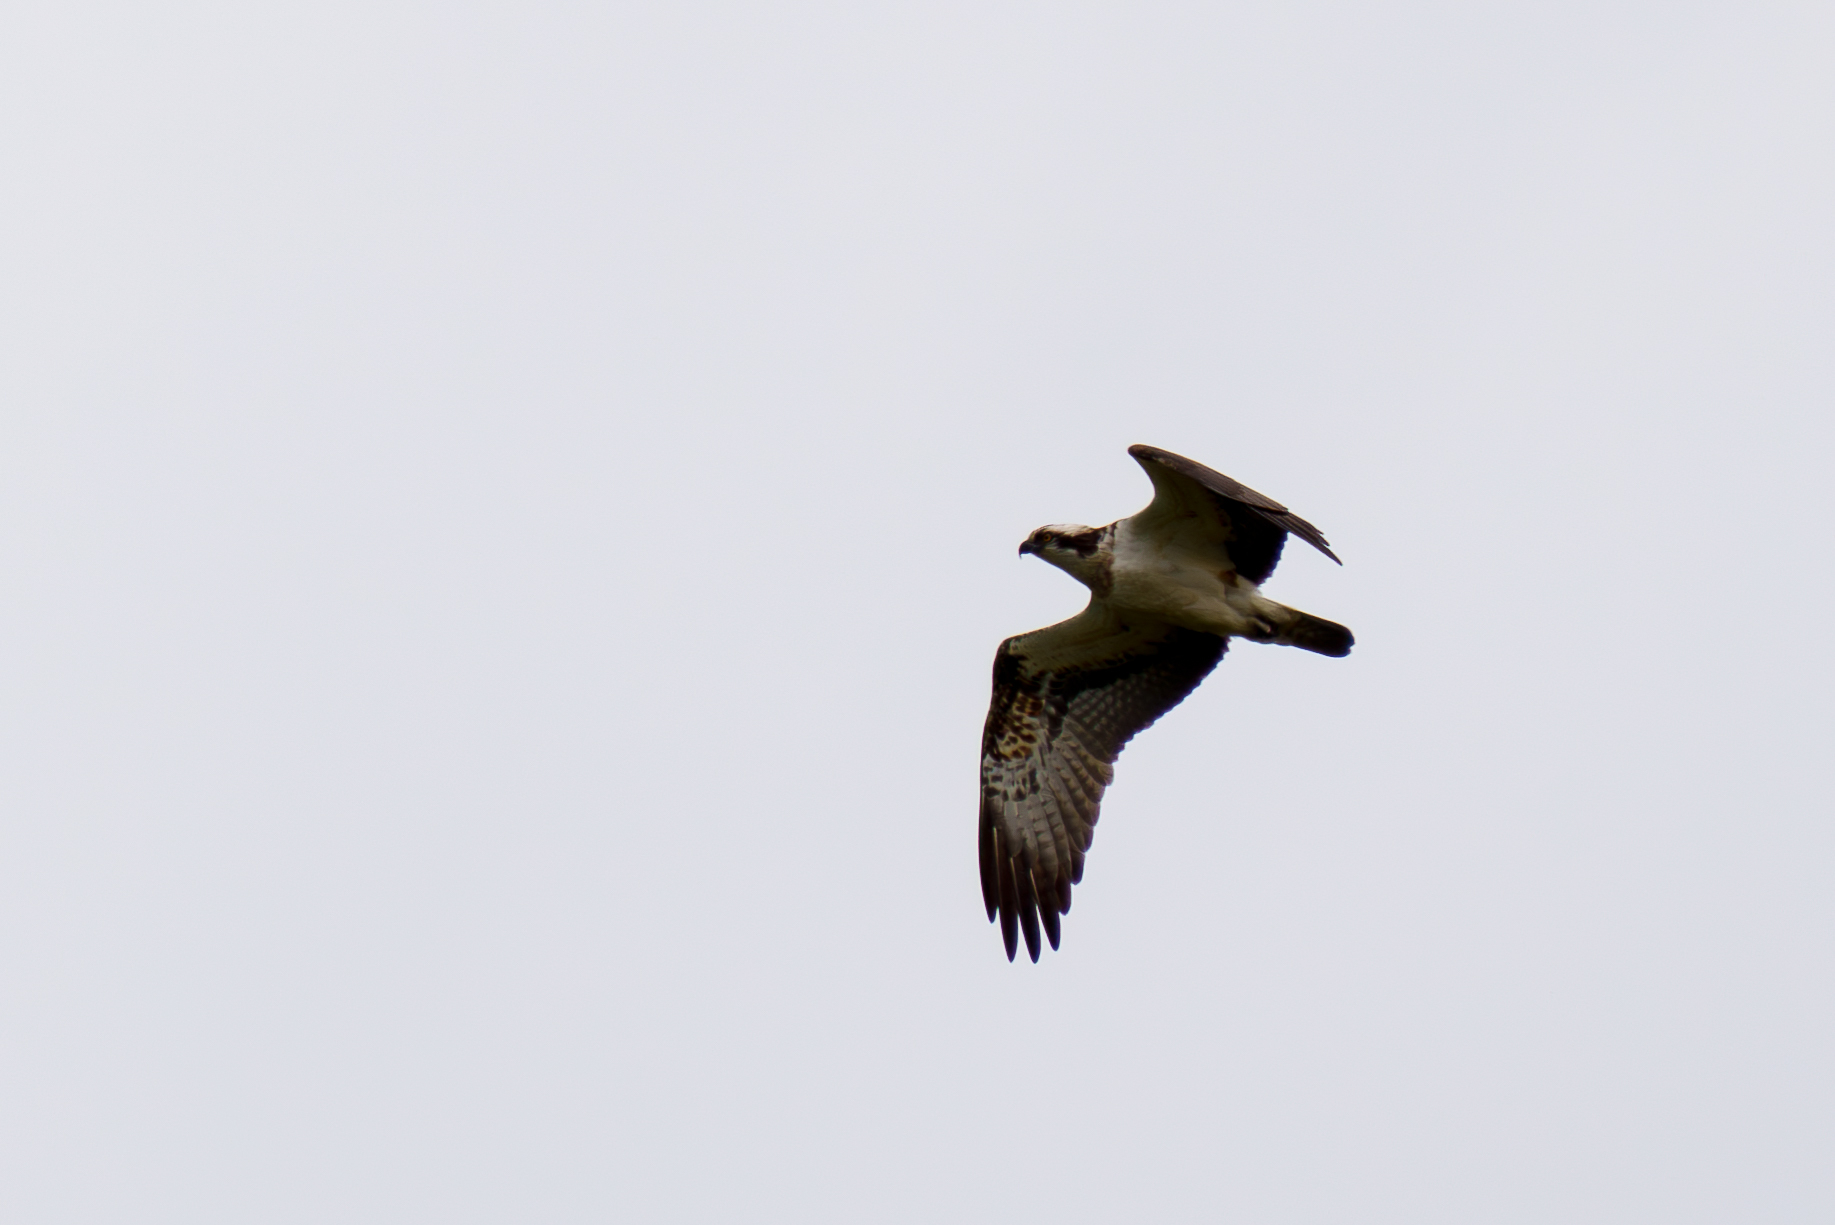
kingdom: Animalia
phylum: Chordata
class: Aves
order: Accipitriformes
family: Pandionidae
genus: Pandion
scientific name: Pandion haliaetus
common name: Osprey
